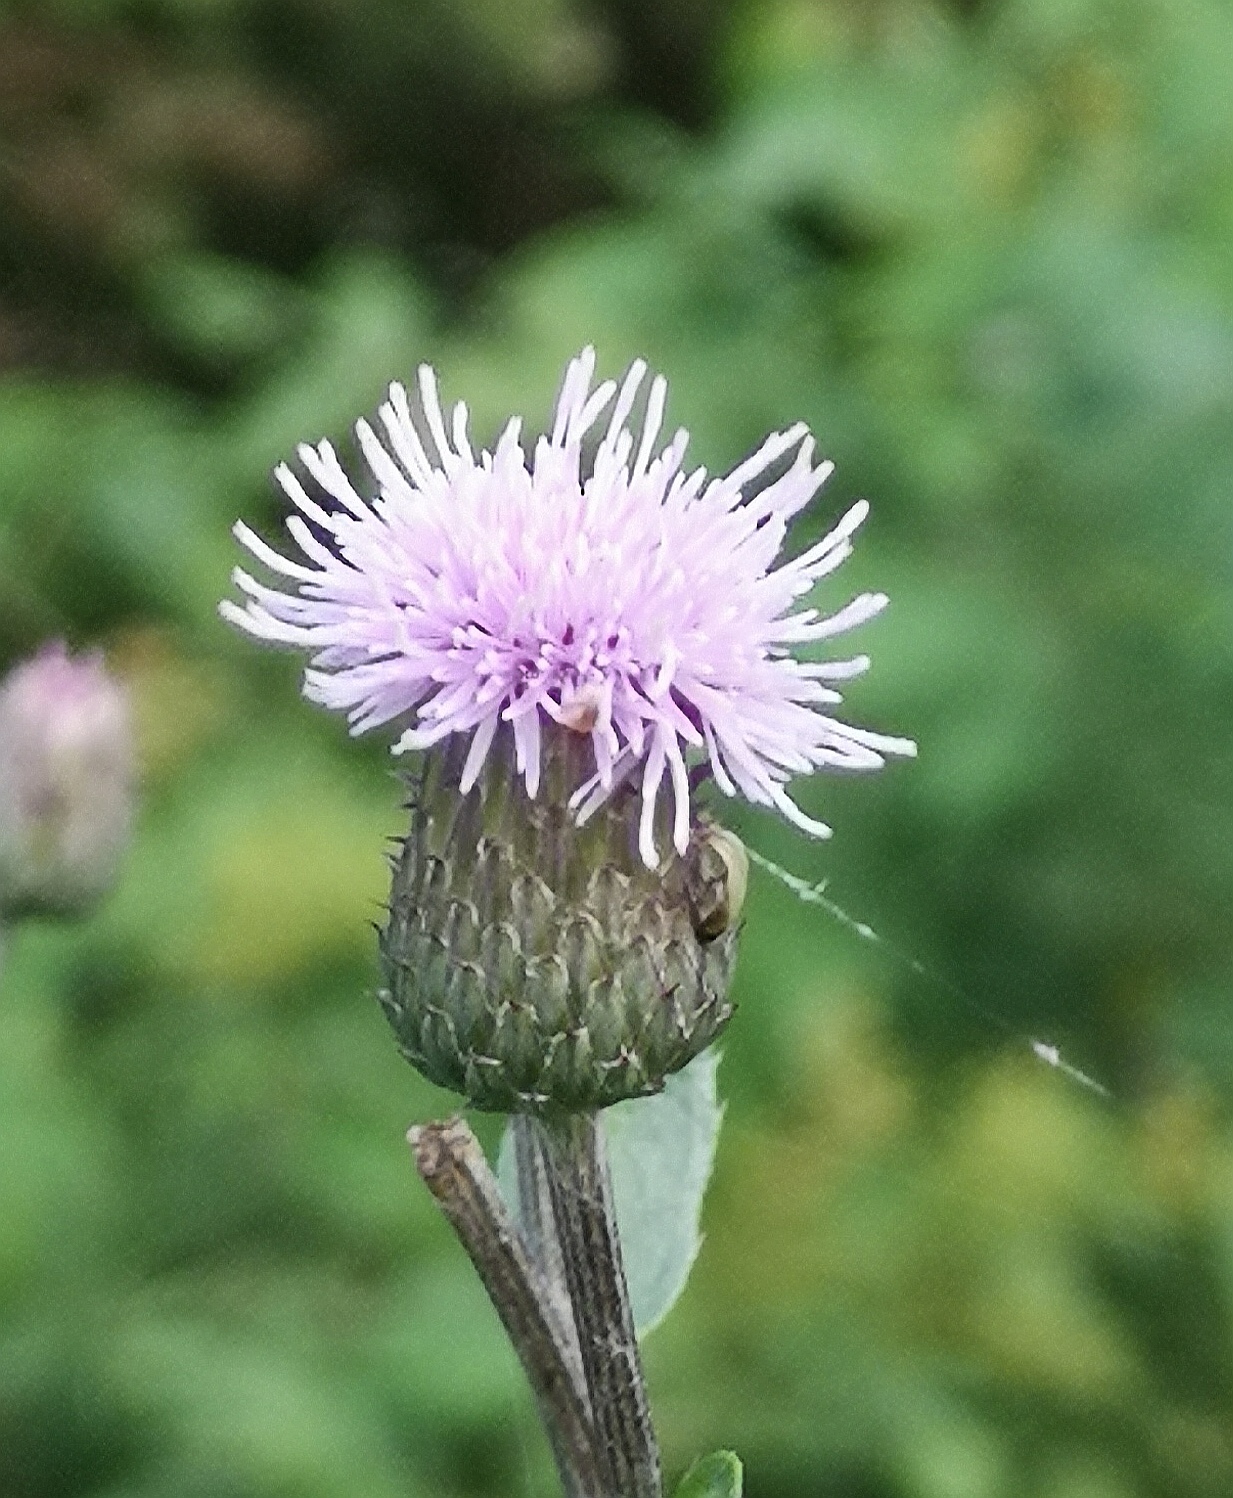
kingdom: Plantae
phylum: Tracheophyta
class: Magnoliopsida
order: Asterales
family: Asteraceae
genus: Cirsium
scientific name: Cirsium arvense
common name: Creeping thistle
